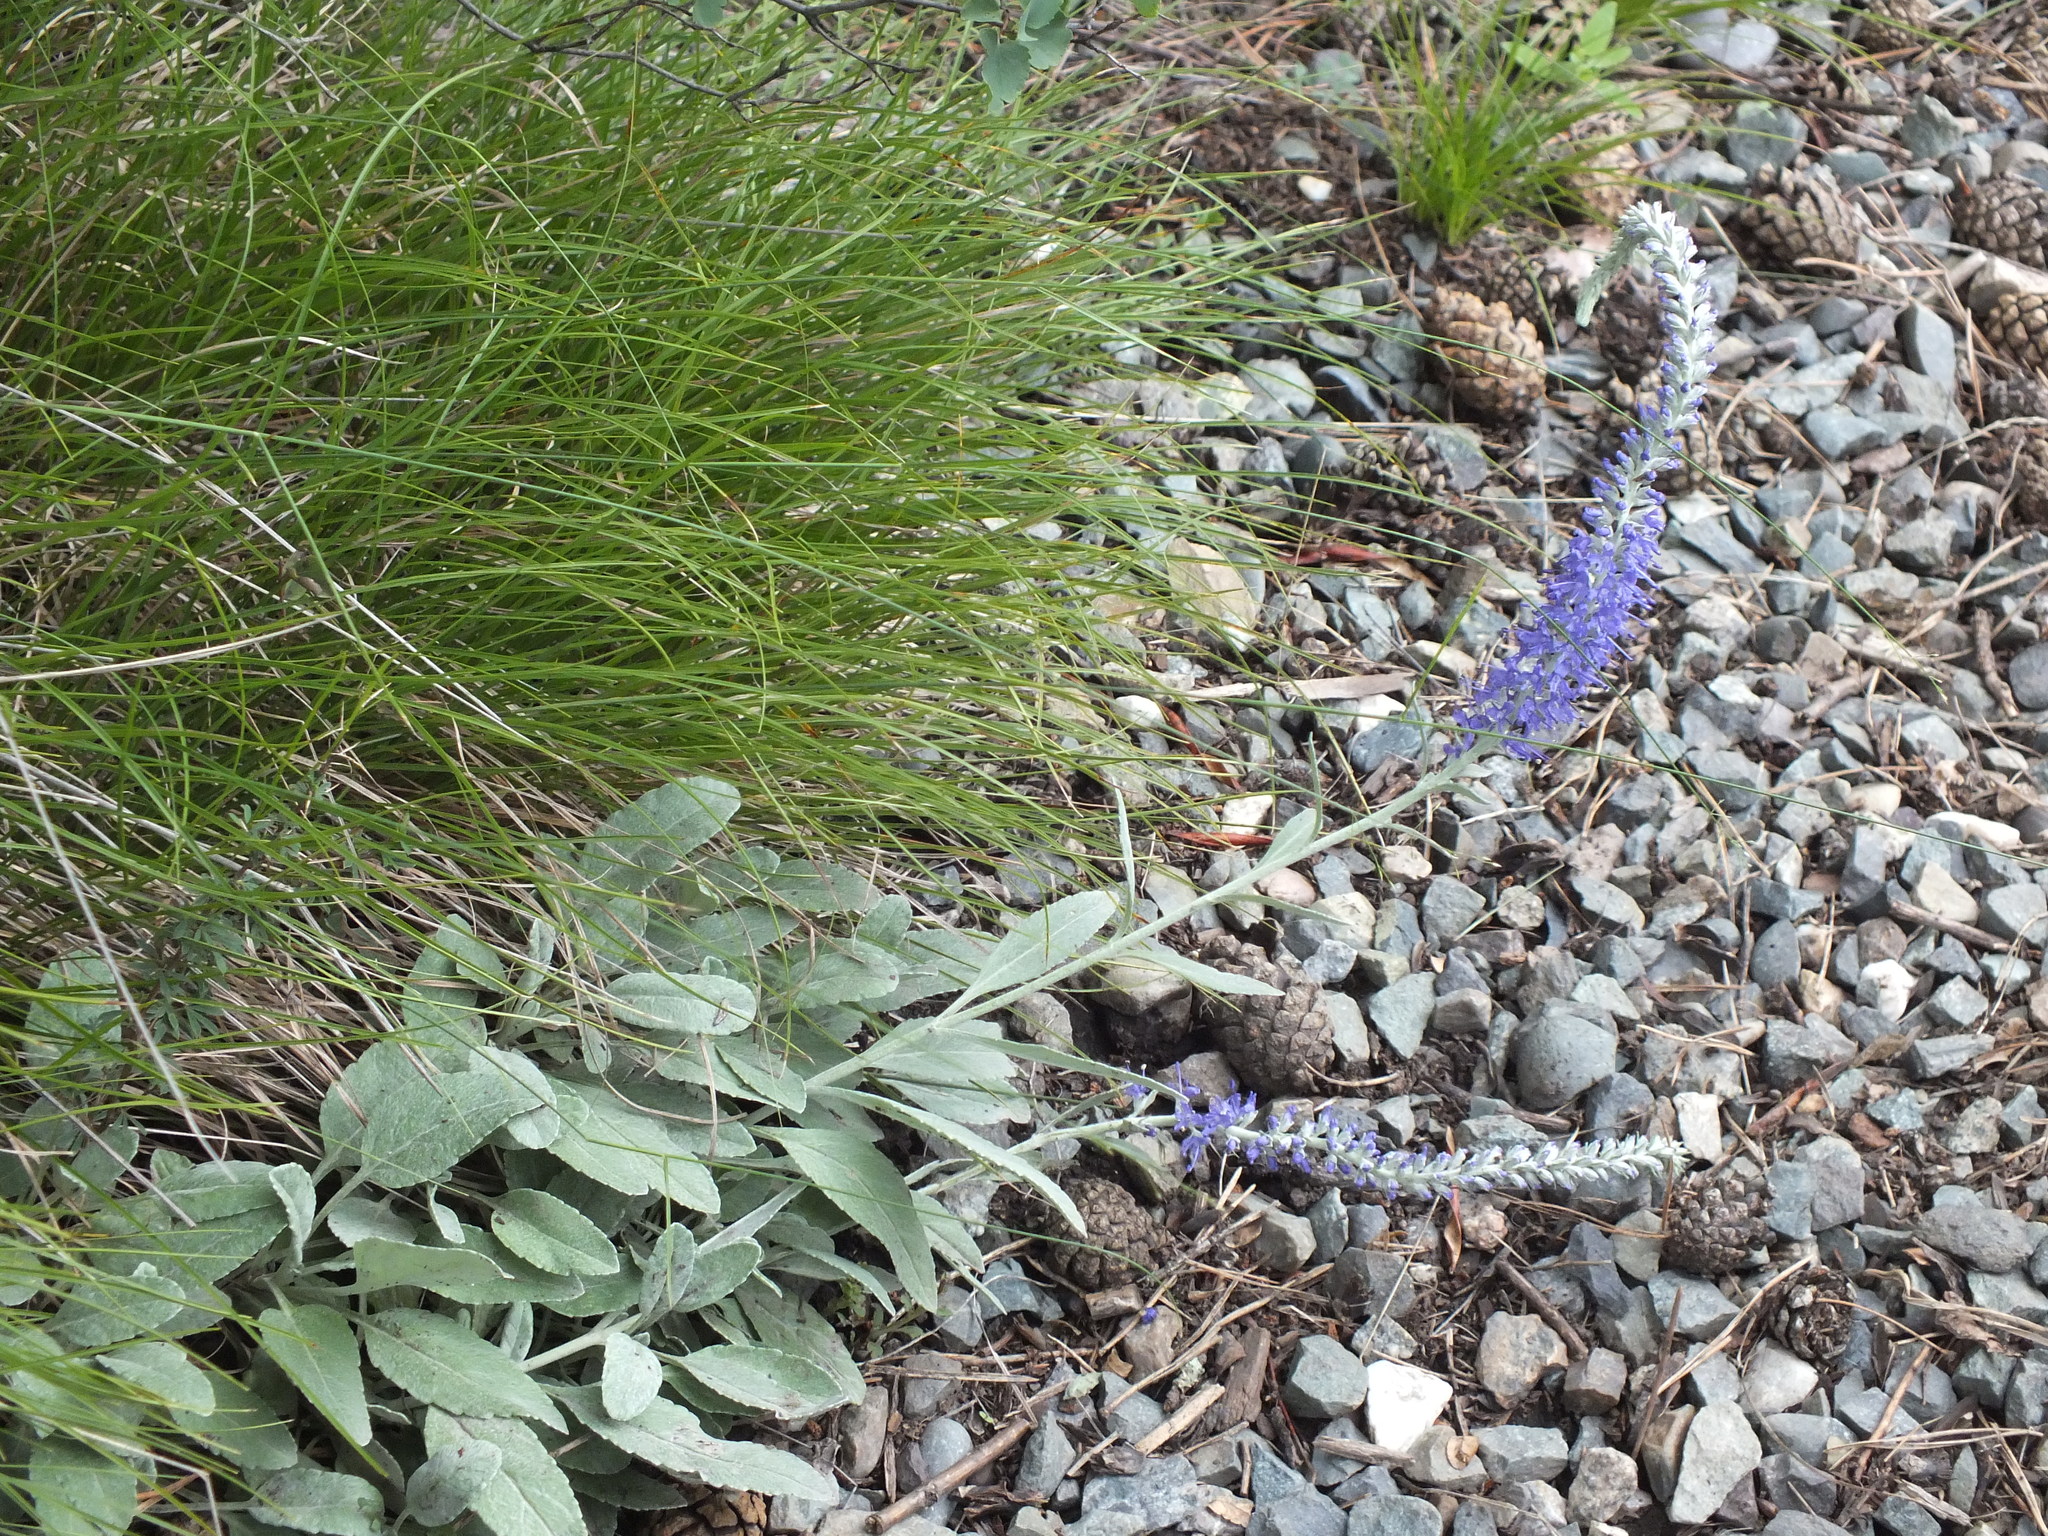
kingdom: Plantae
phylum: Tracheophyta
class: Magnoliopsida
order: Lamiales
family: Plantaginaceae
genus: Veronica
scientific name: Veronica incana
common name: Silver speedwell
